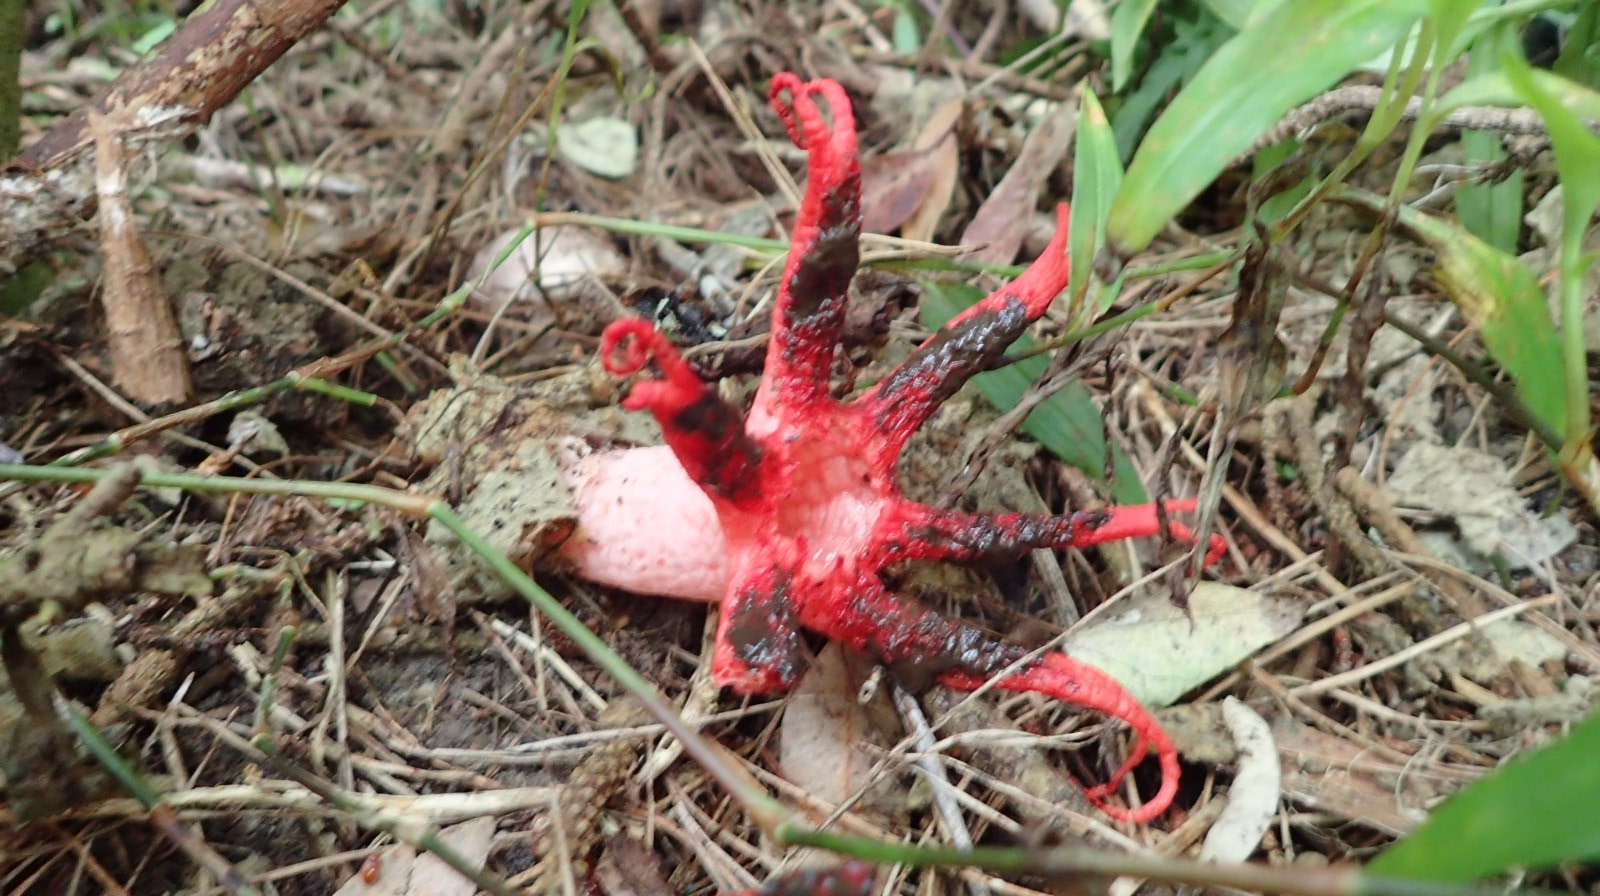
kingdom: Fungi
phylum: Basidiomycota
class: Agaricomycetes
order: Phallales
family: Phallaceae
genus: Clathrus
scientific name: Clathrus archeri
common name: Devil's fingers
